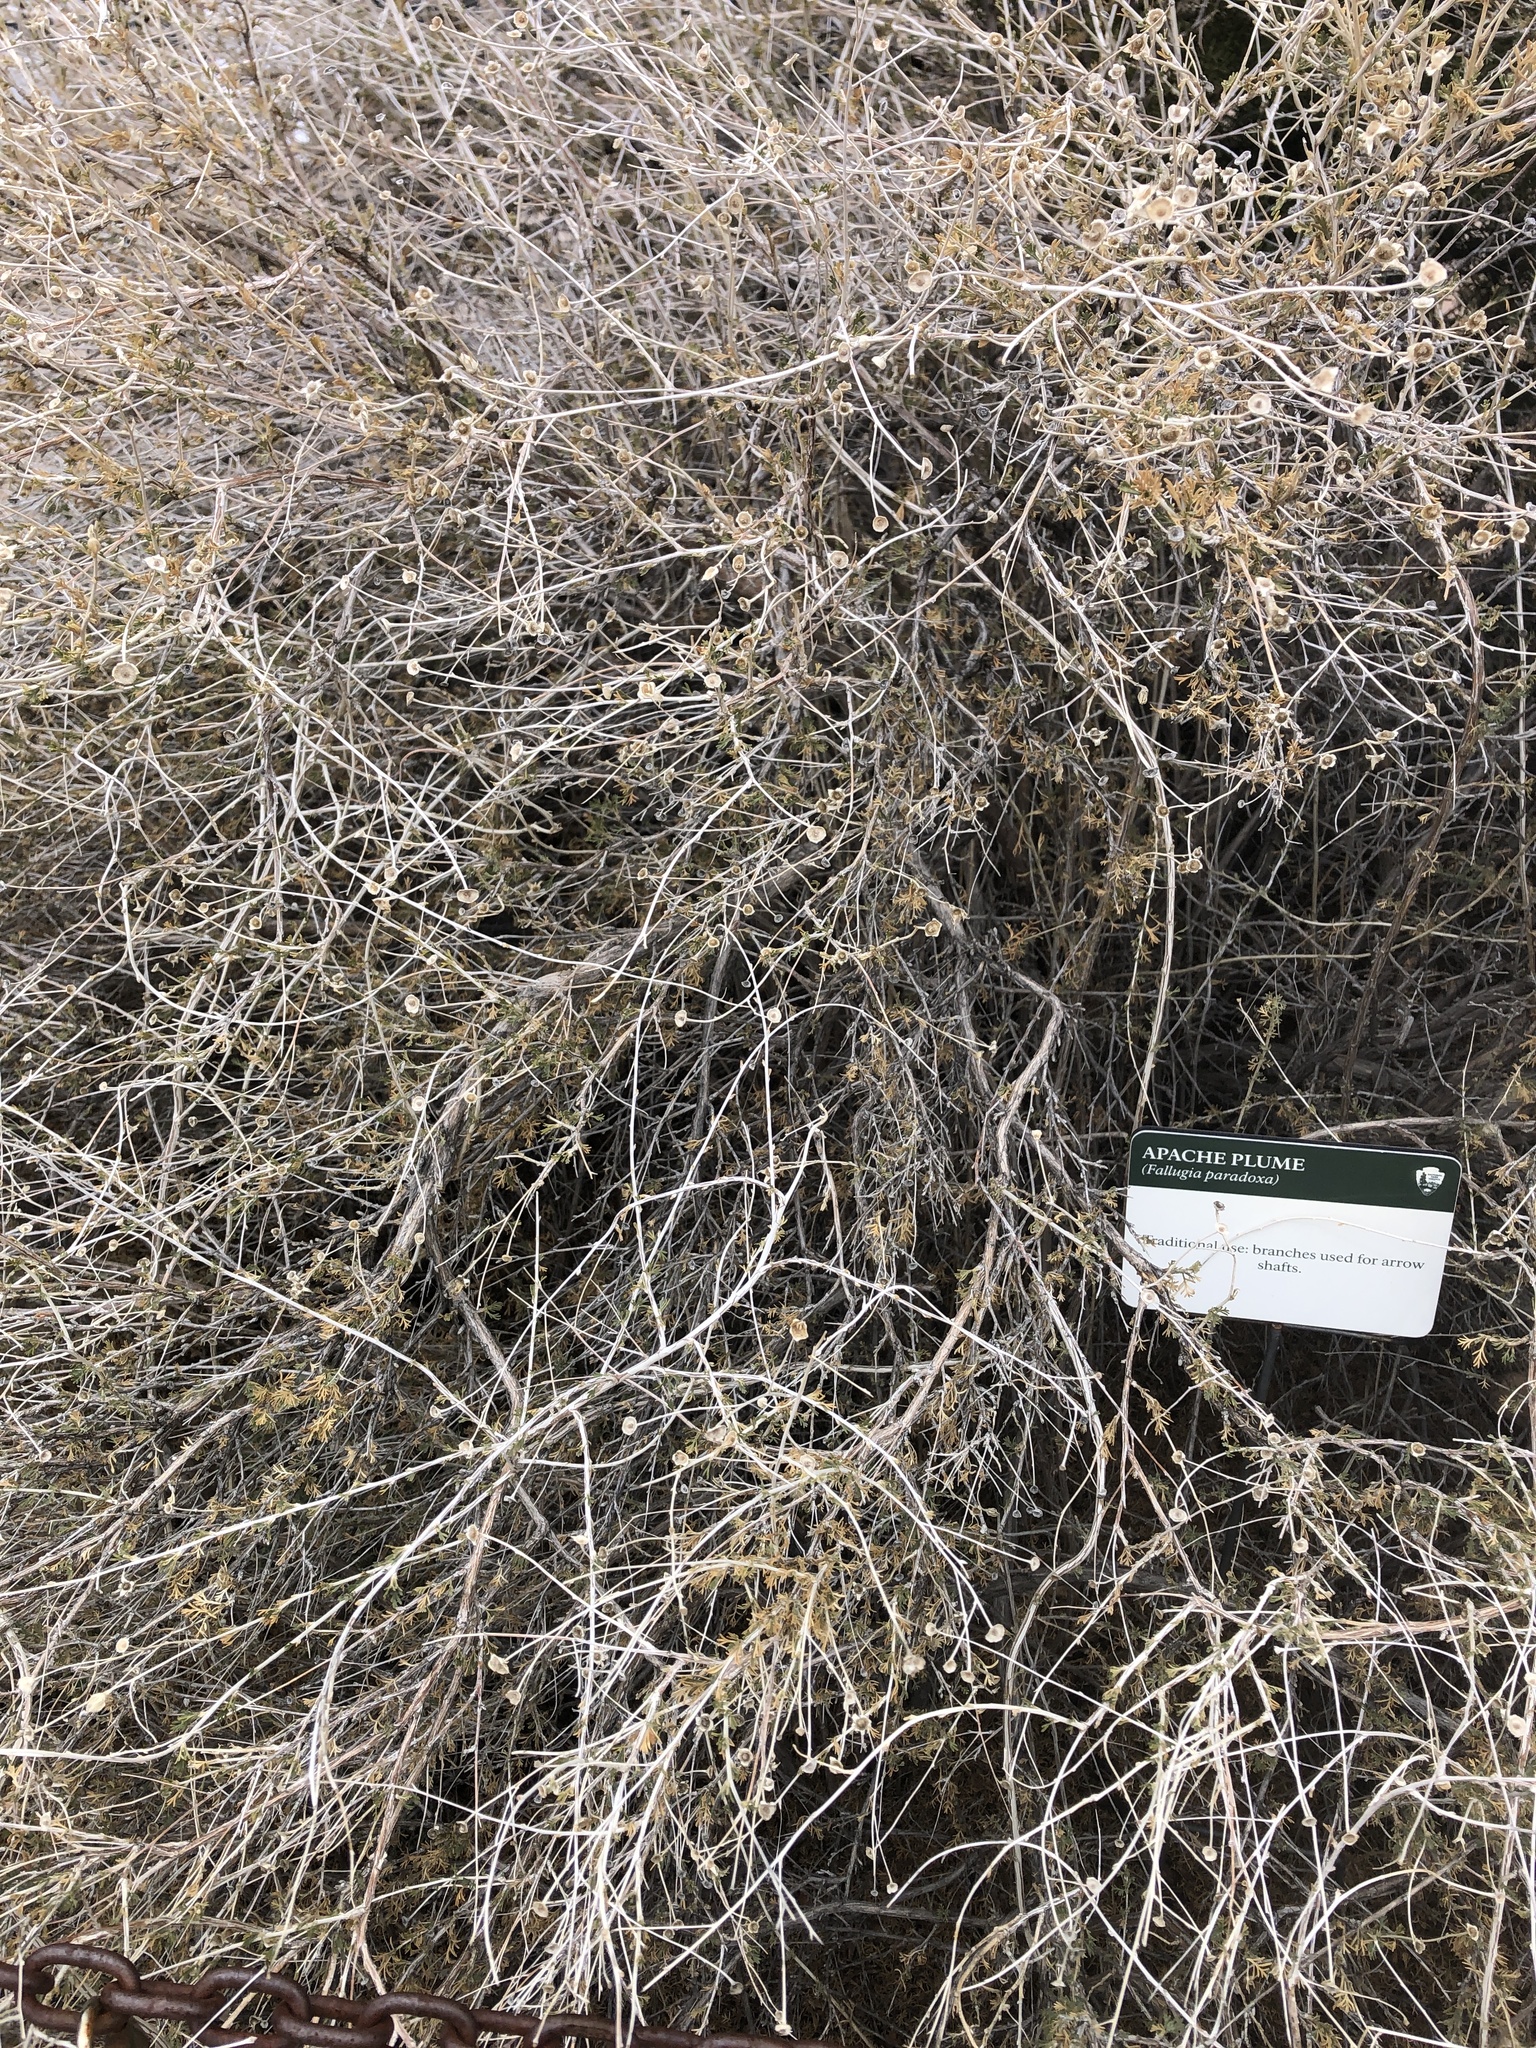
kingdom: Plantae
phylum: Tracheophyta
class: Magnoliopsida
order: Rosales
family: Rosaceae
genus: Fallugia
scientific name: Fallugia paradoxa
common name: Apache-plume
